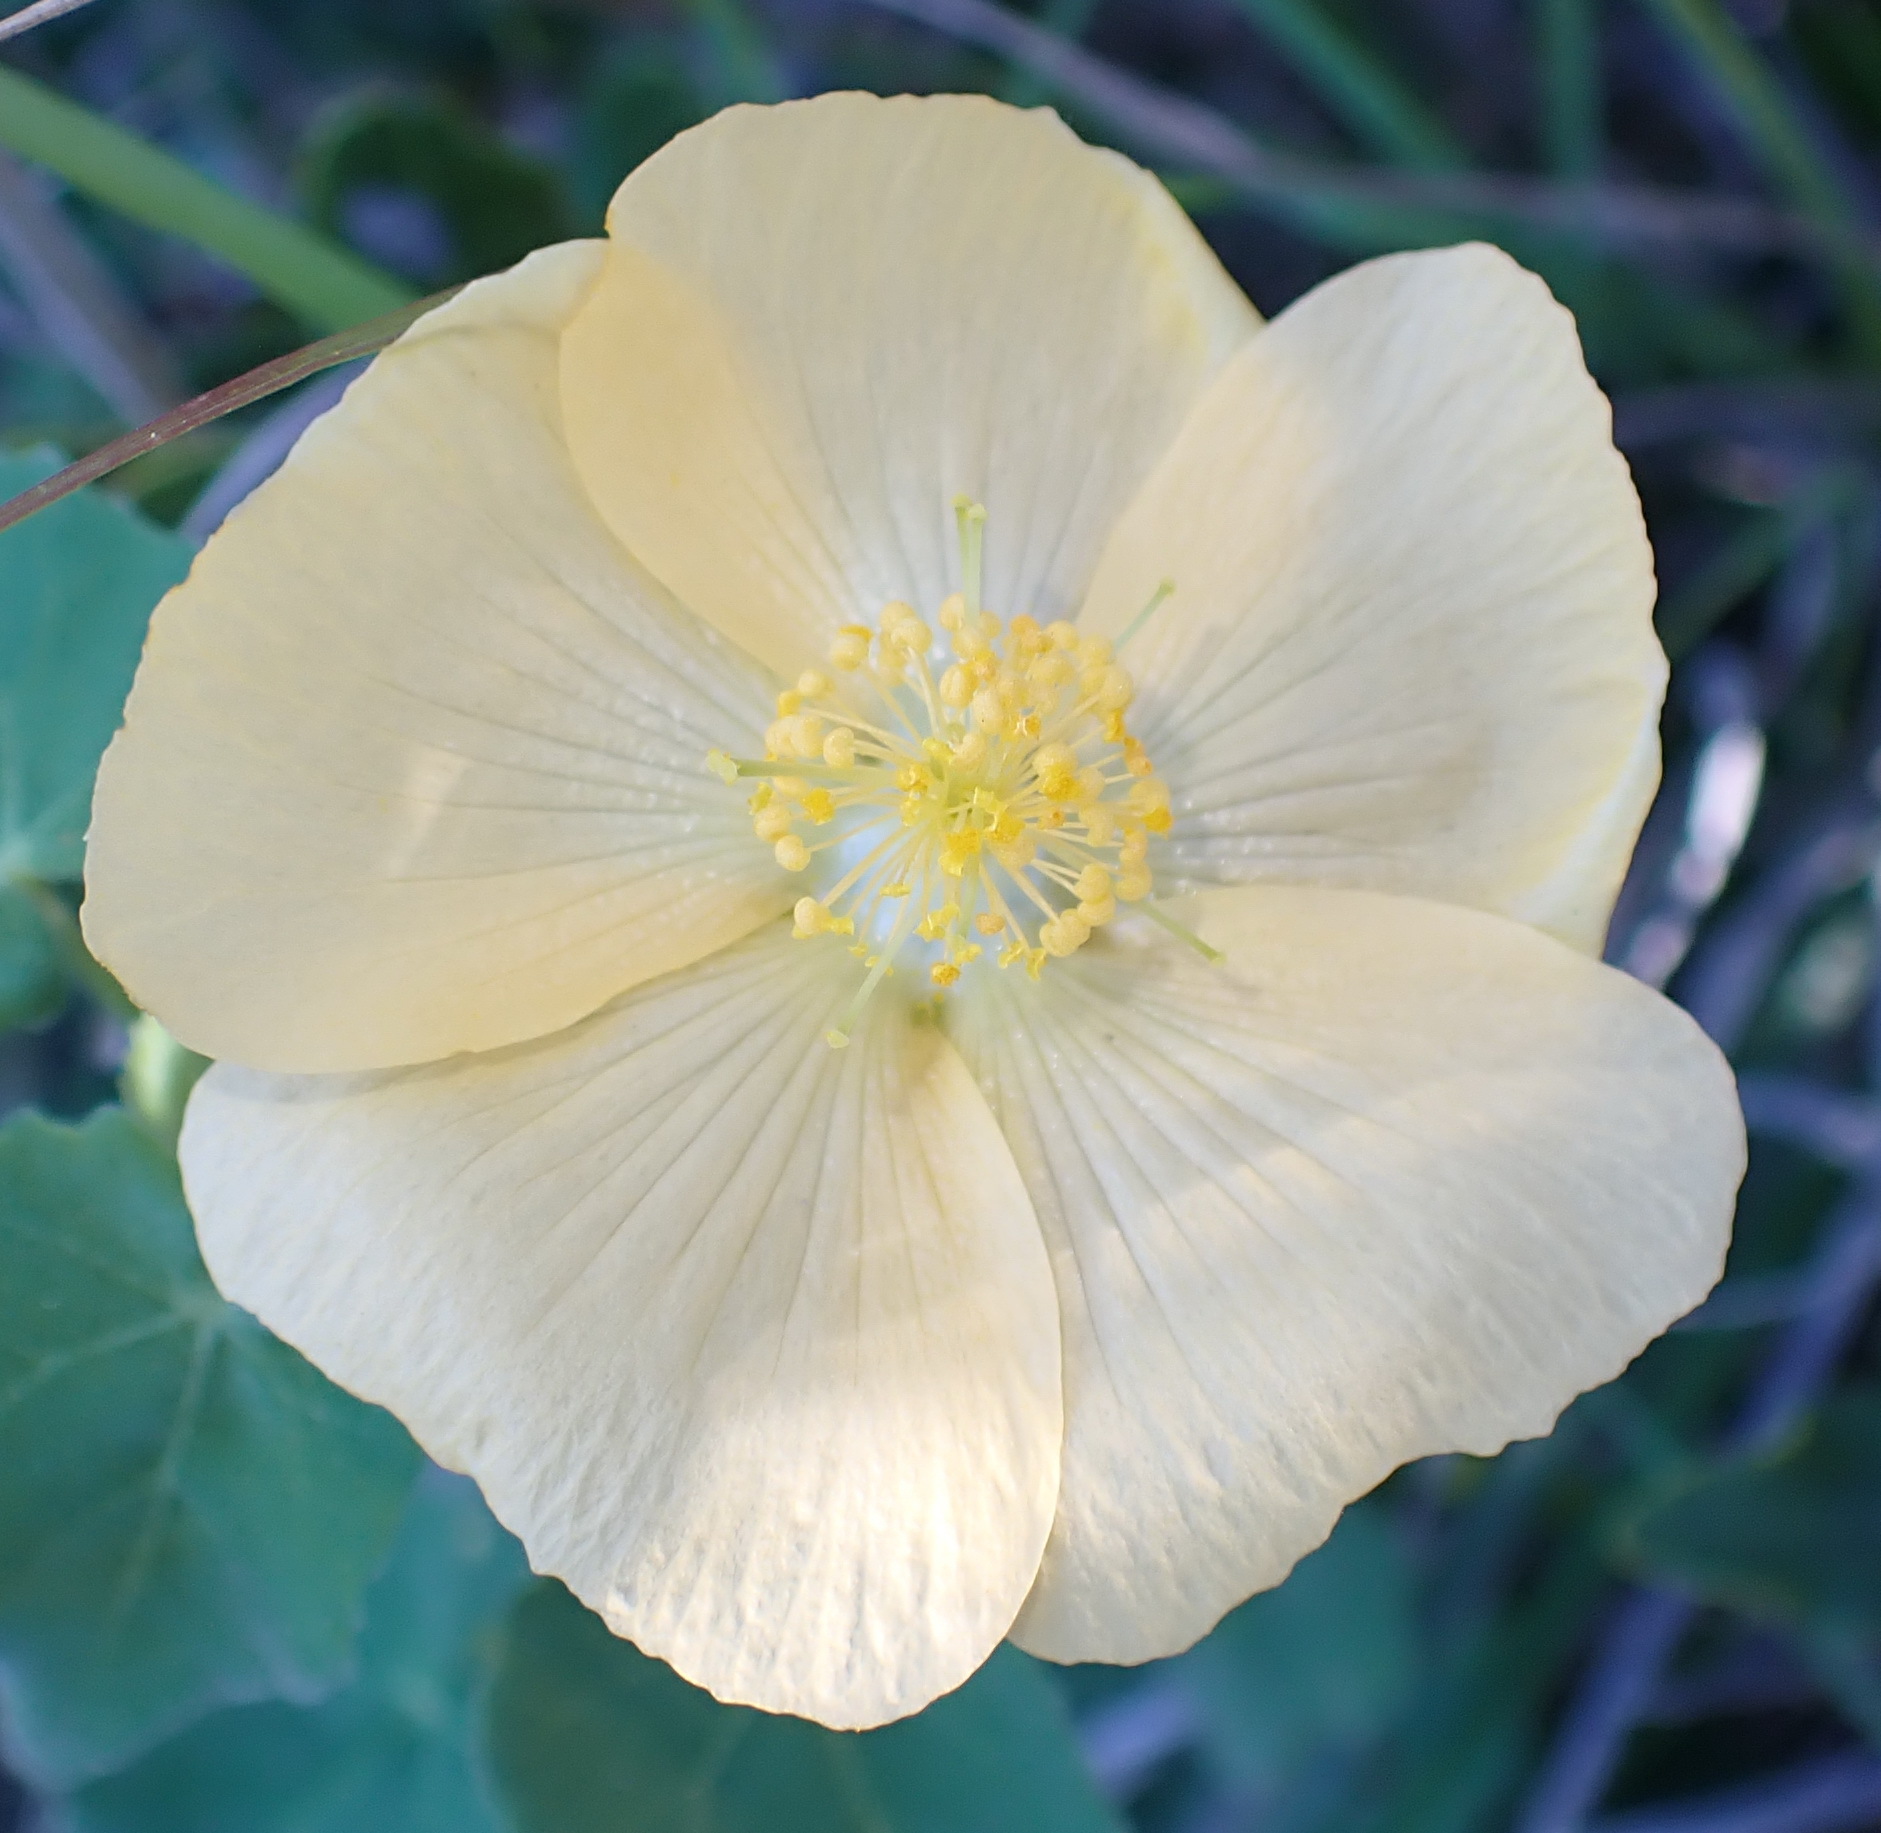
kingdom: Plantae
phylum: Tracheophyta
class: Magnoliopsida
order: Malvales
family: Malvaceae
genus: Abutilon
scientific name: Abutilon sonneratianum
